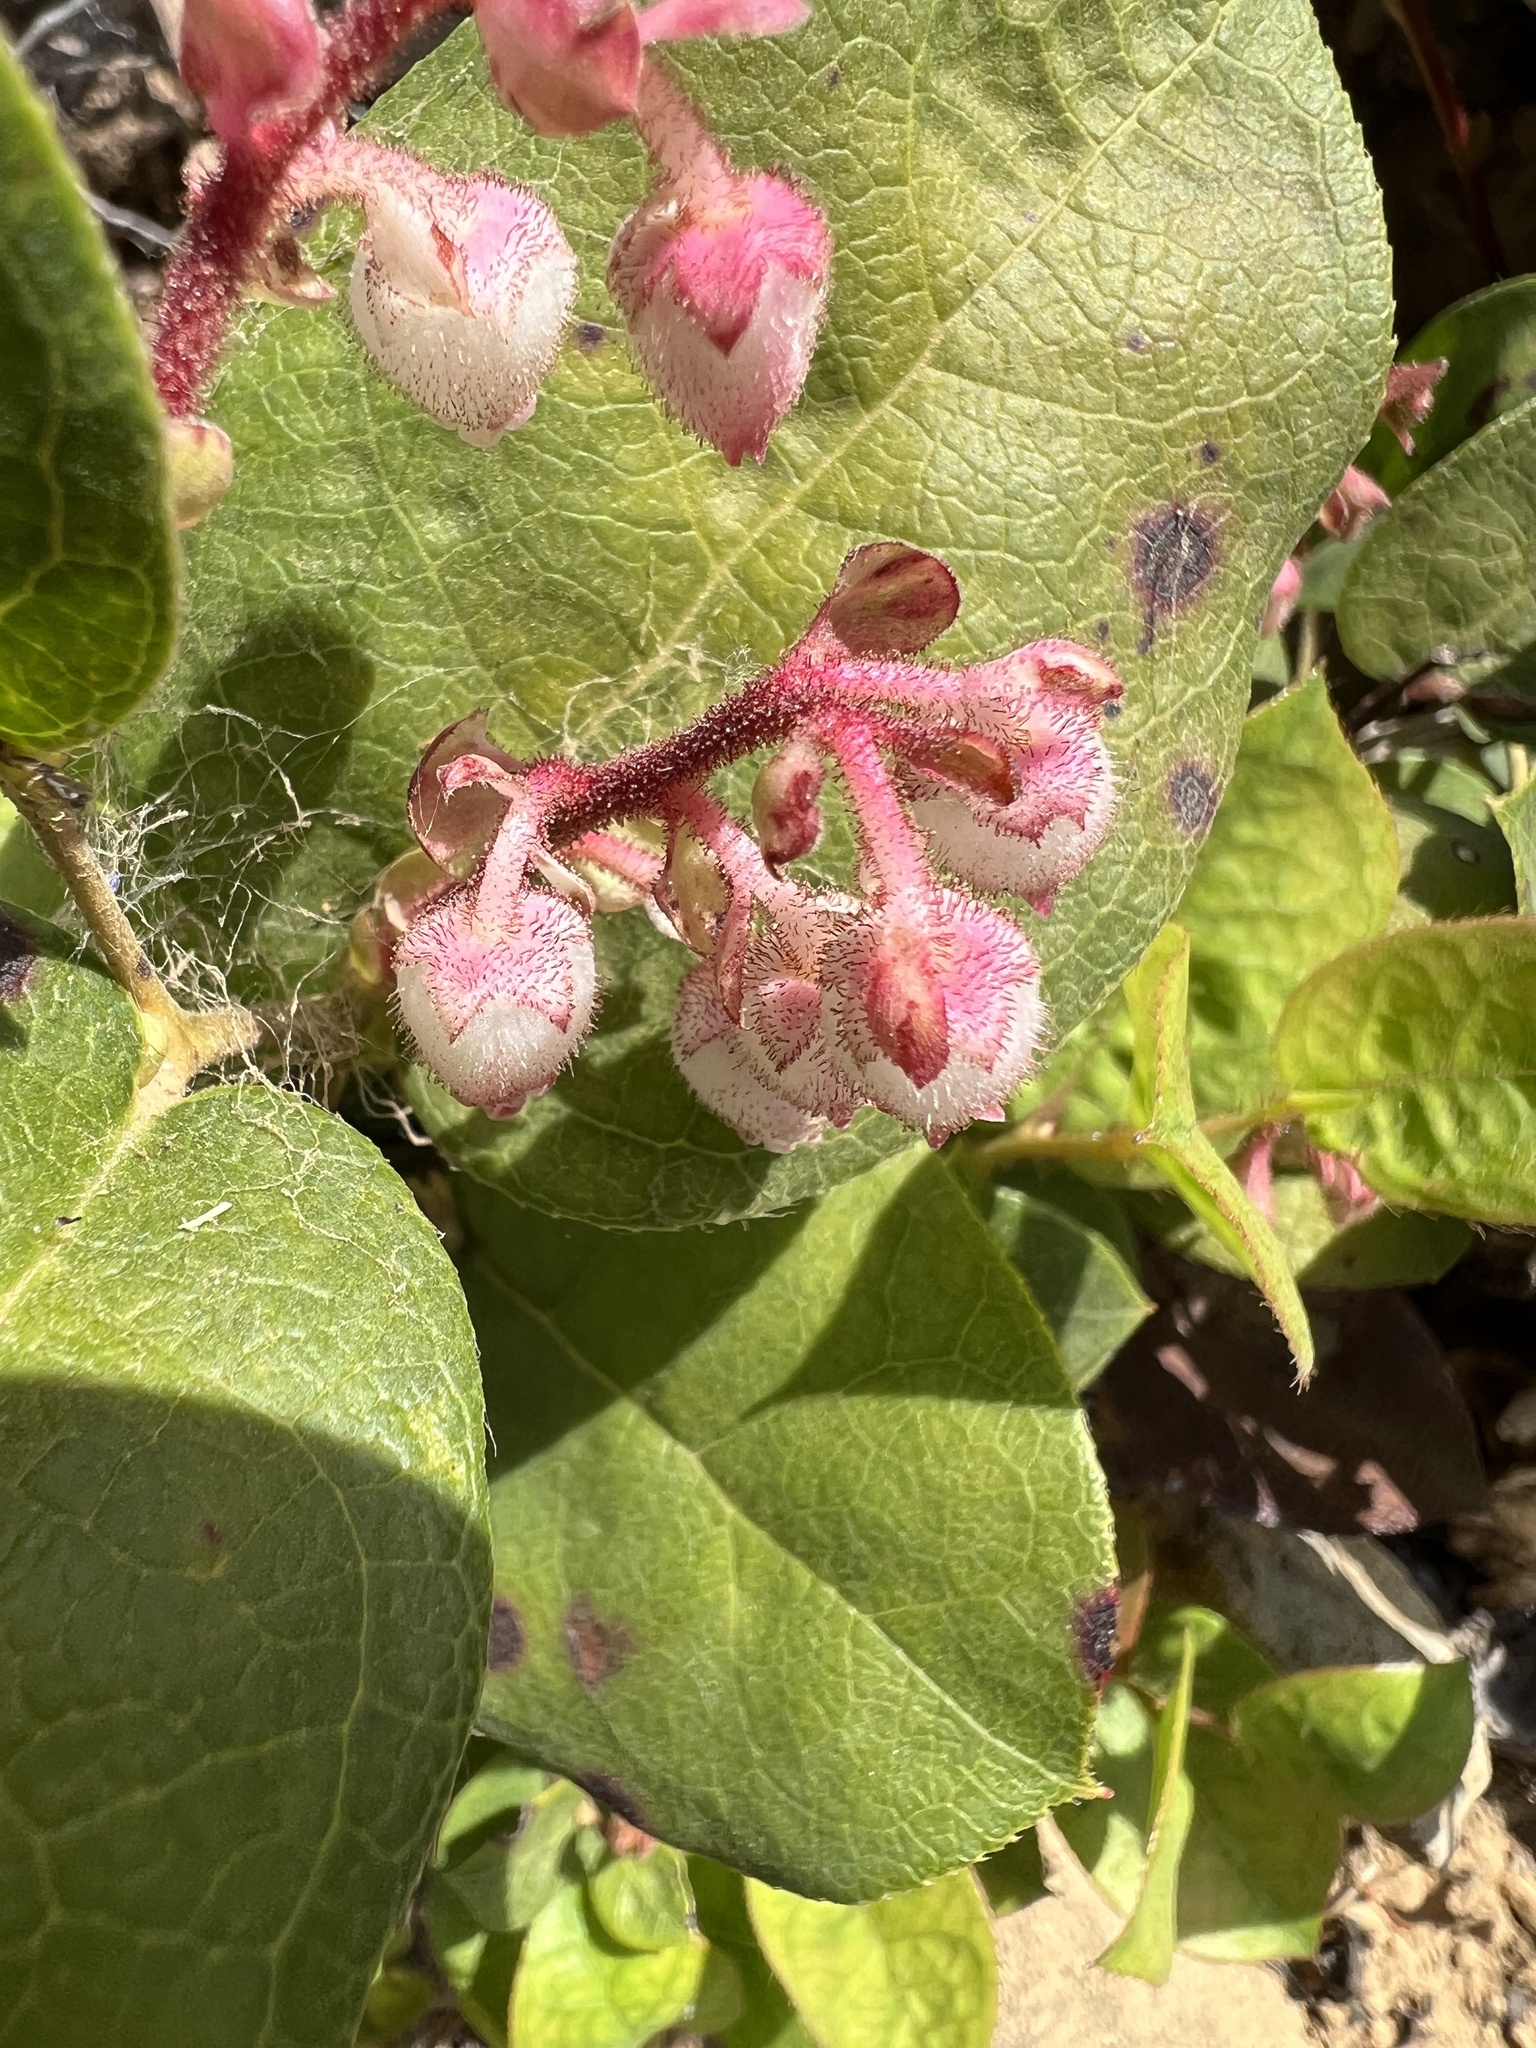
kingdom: Plantae
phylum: Tracheophyta
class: Magnoliopsida
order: Ericales
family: Ericaceae
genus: Gaultheria
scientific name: Gaultheria shallon
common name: Shallon
